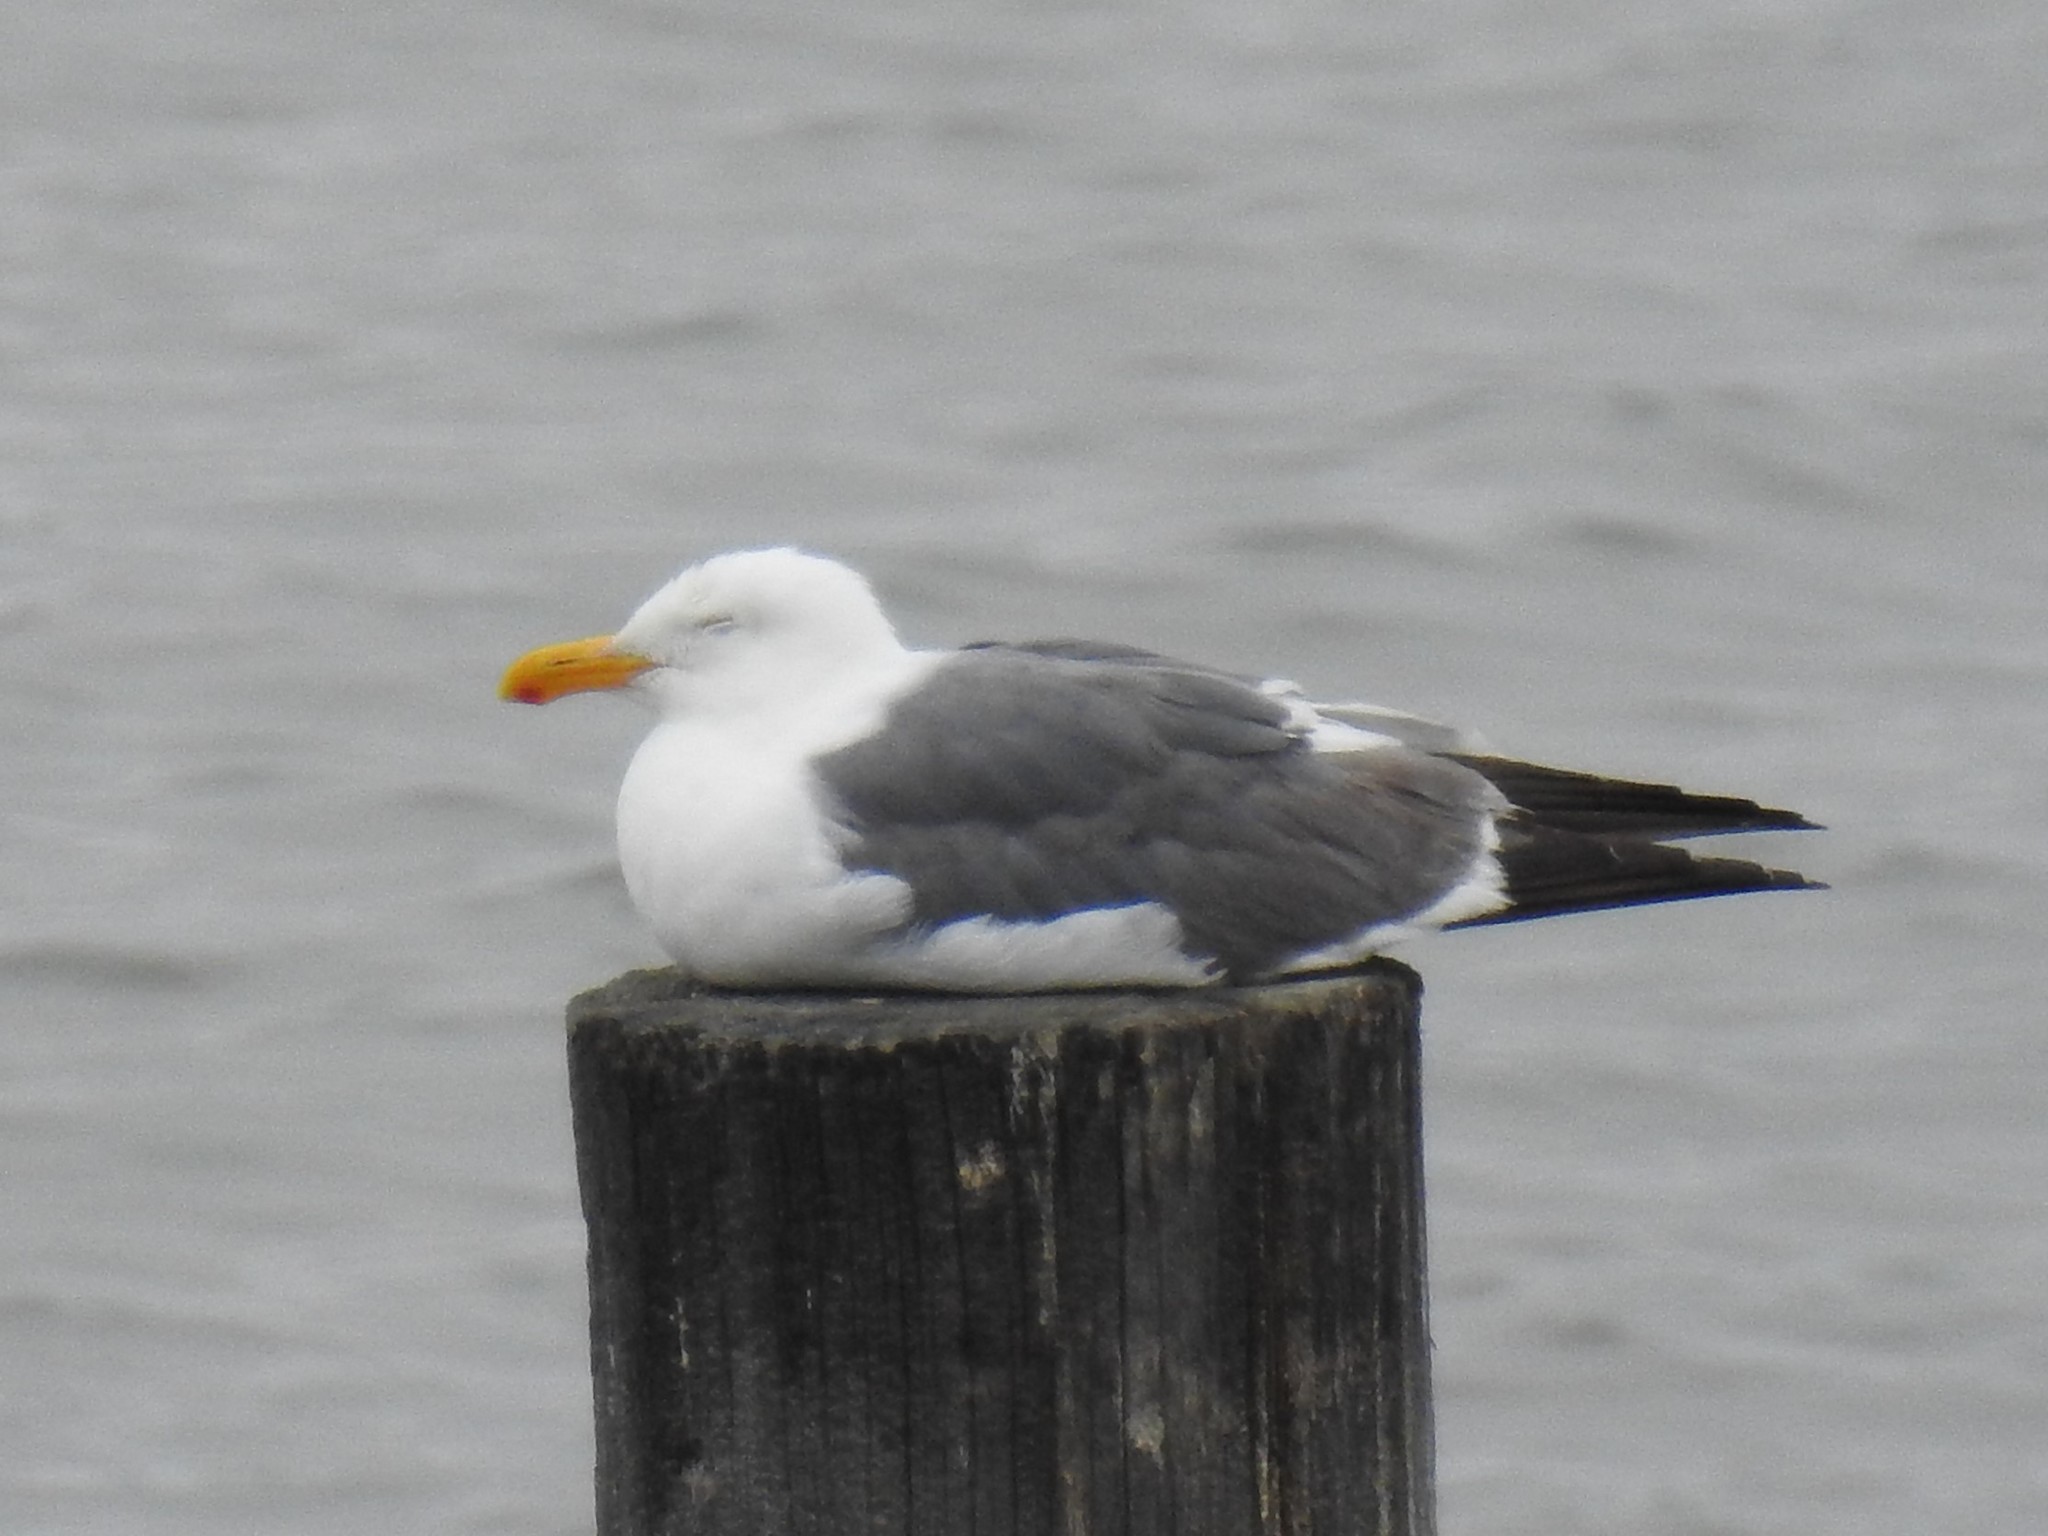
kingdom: Animalia
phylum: Chordata
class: Aves
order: Charadriiformes
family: Laridae
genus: Larus
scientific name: Larus occidentalis
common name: Western gull
